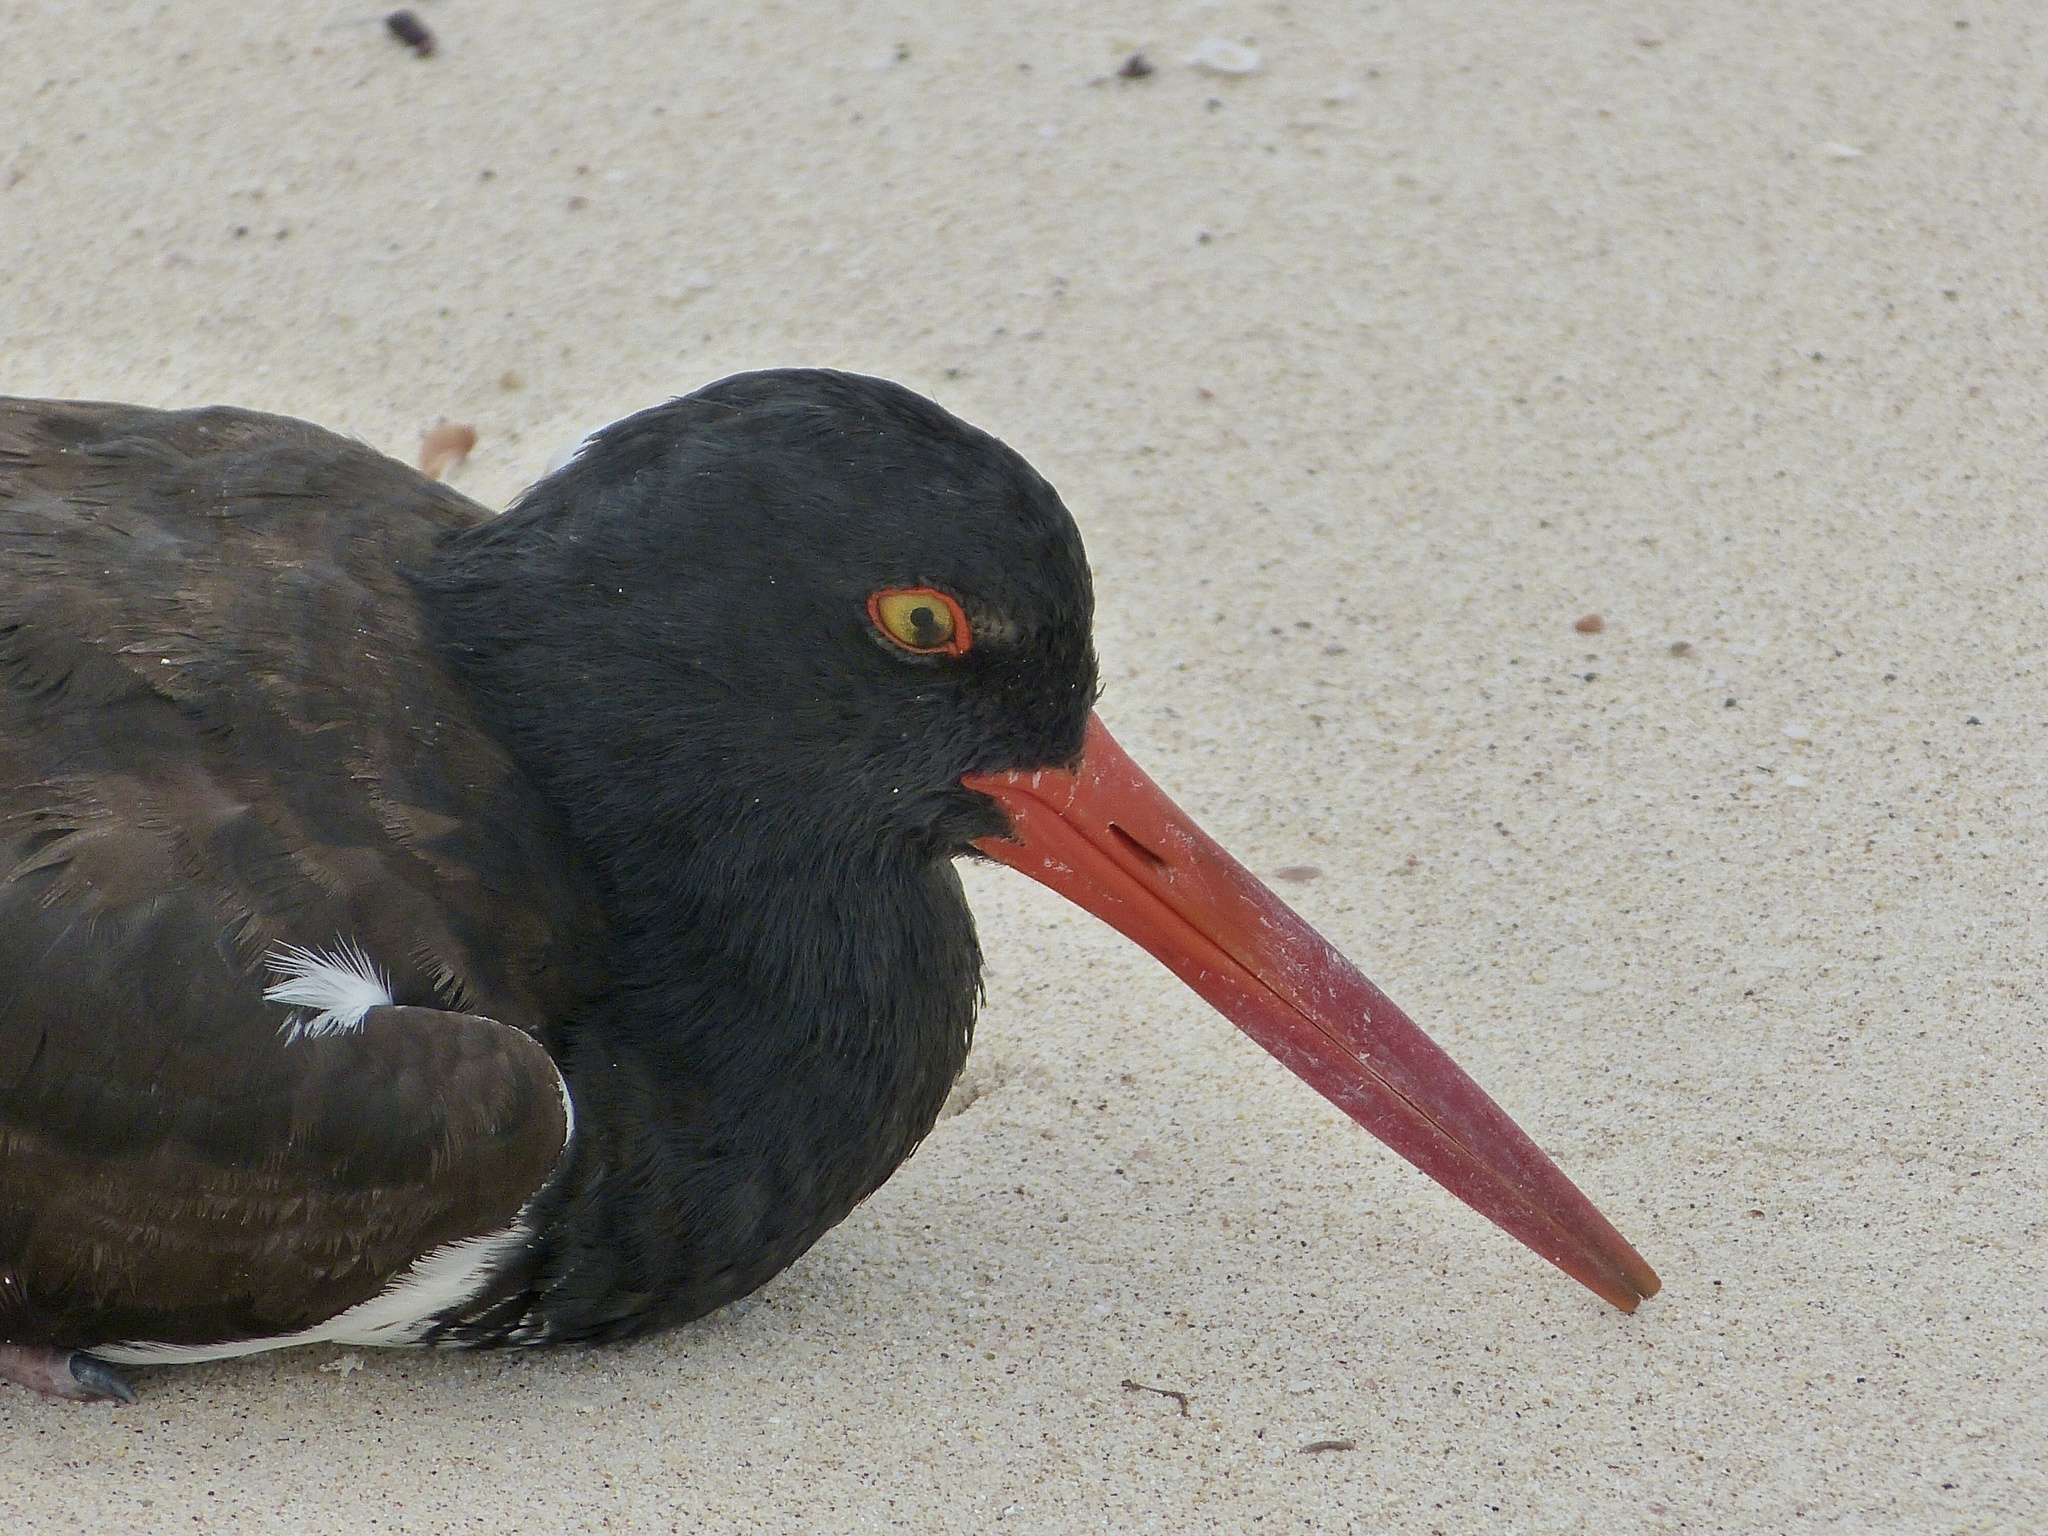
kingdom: Animalia
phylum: Chordata
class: Aves
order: Charadriiformes
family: Haematopodidae
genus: Haematopus
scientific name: Haematopus palliatus
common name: American oystercatcher
